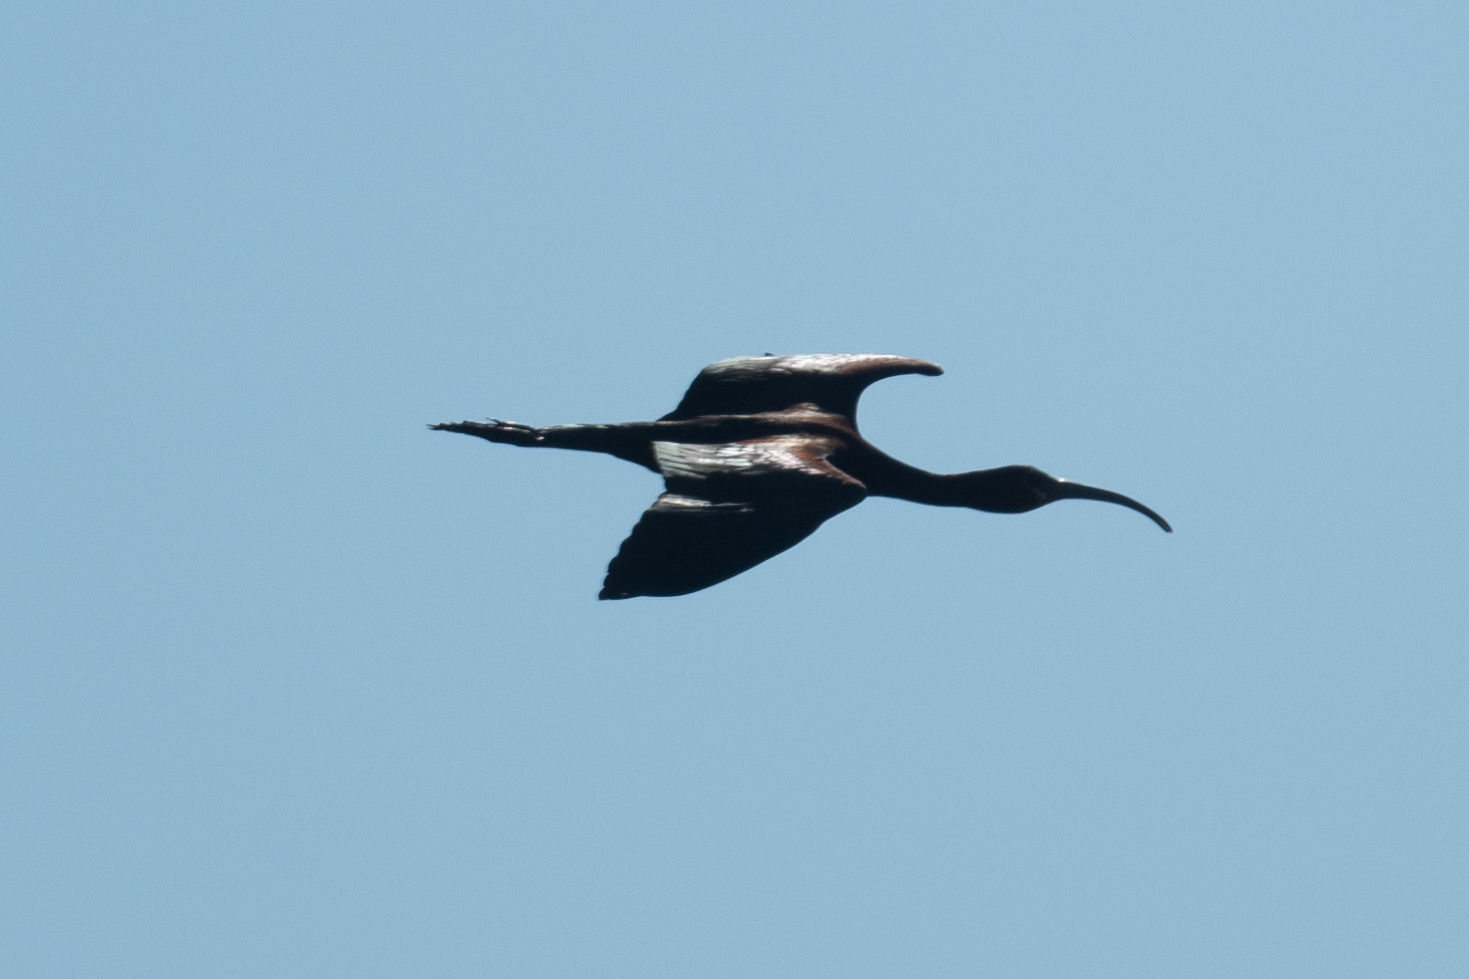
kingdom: Animalia
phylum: Chordata
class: Aves
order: Pelecaniformes
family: Threskiornithidae
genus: Plegadis
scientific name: Plegadis chihi
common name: White-faced ibis
